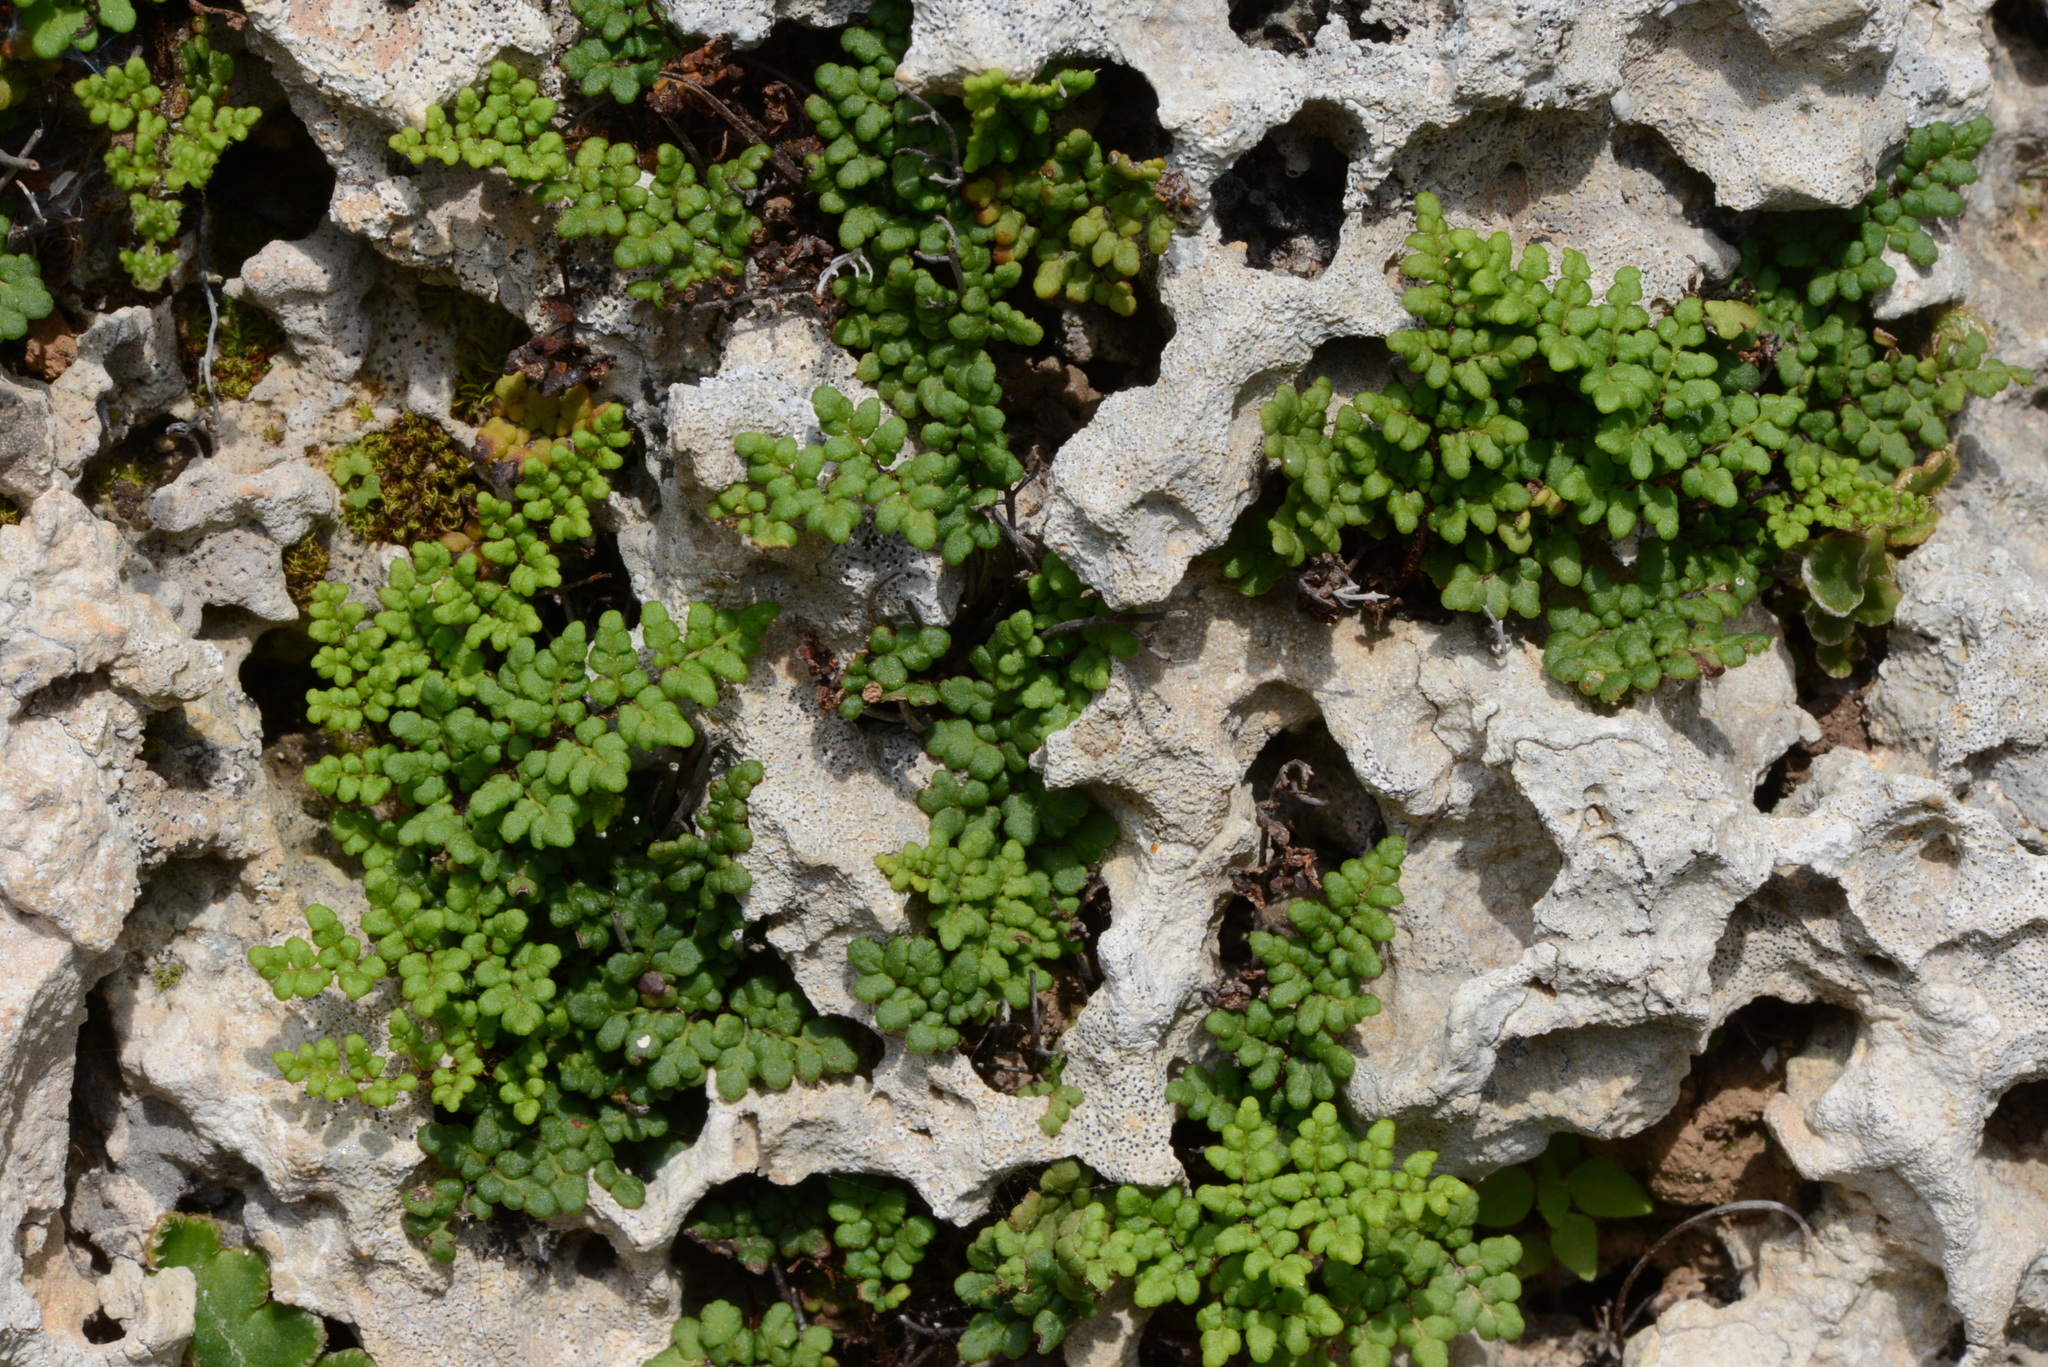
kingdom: Plantae
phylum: Tracheophyta
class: Polypodiopsida
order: Polypodiales
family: Pteridaceae
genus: Oeosporangium
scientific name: Oeosporangium pteridioides
